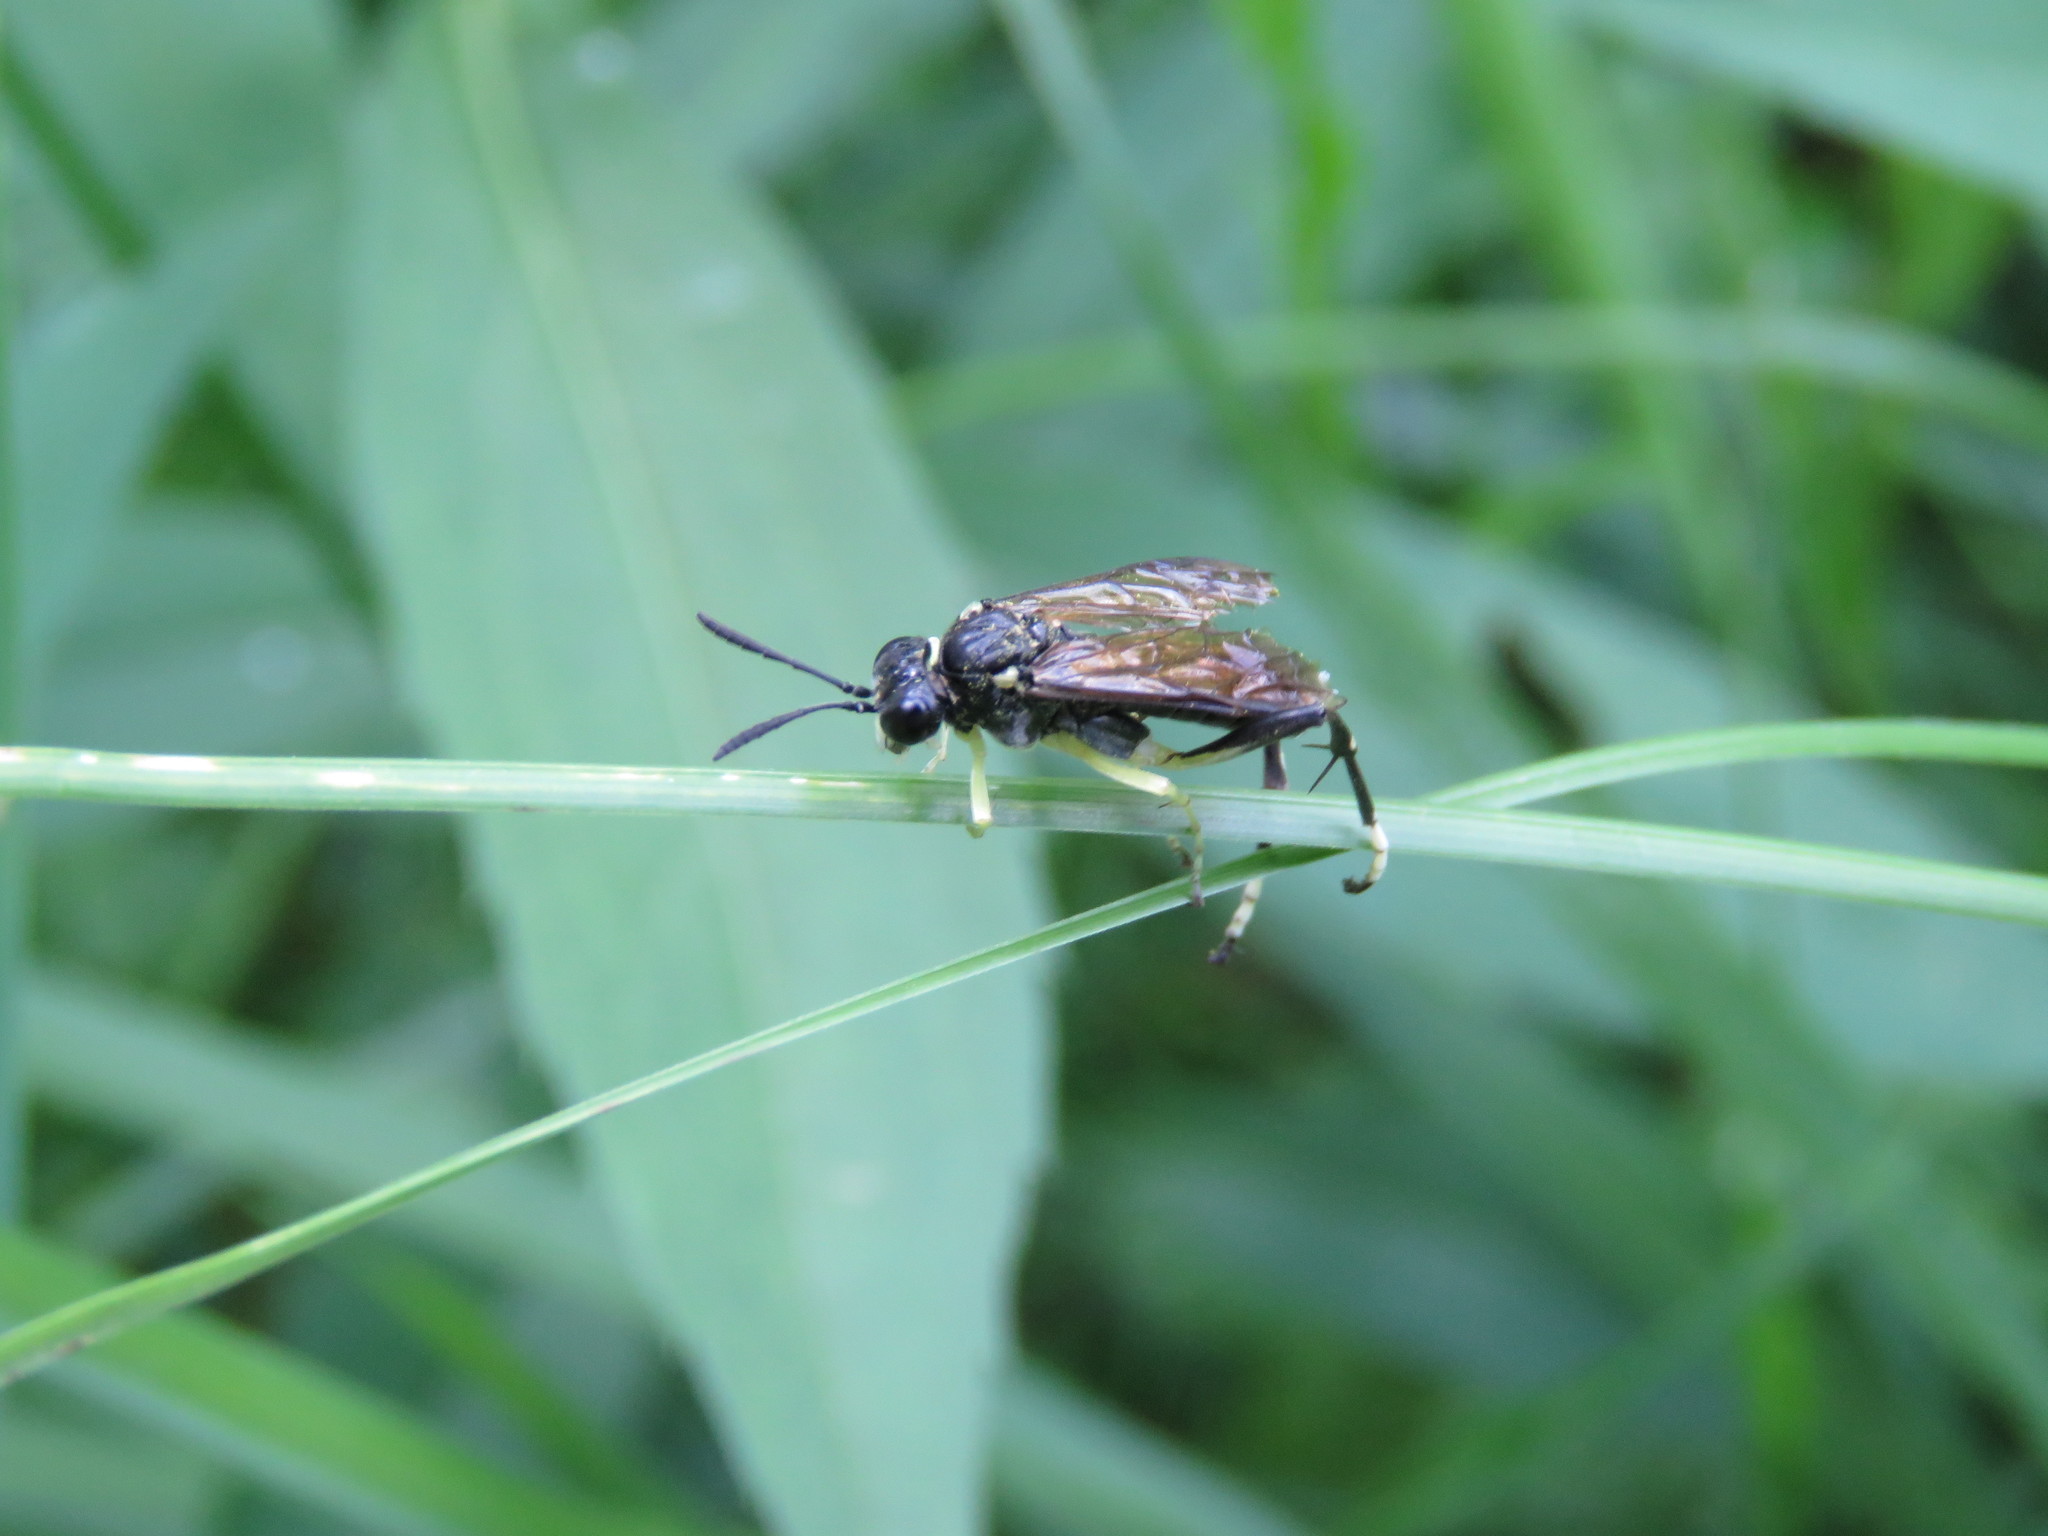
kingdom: Animalia
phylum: Arthropoda
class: Insecta
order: Hymenoptera
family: Tenthredinidae
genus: Macrophya
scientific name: Macrophya montana
